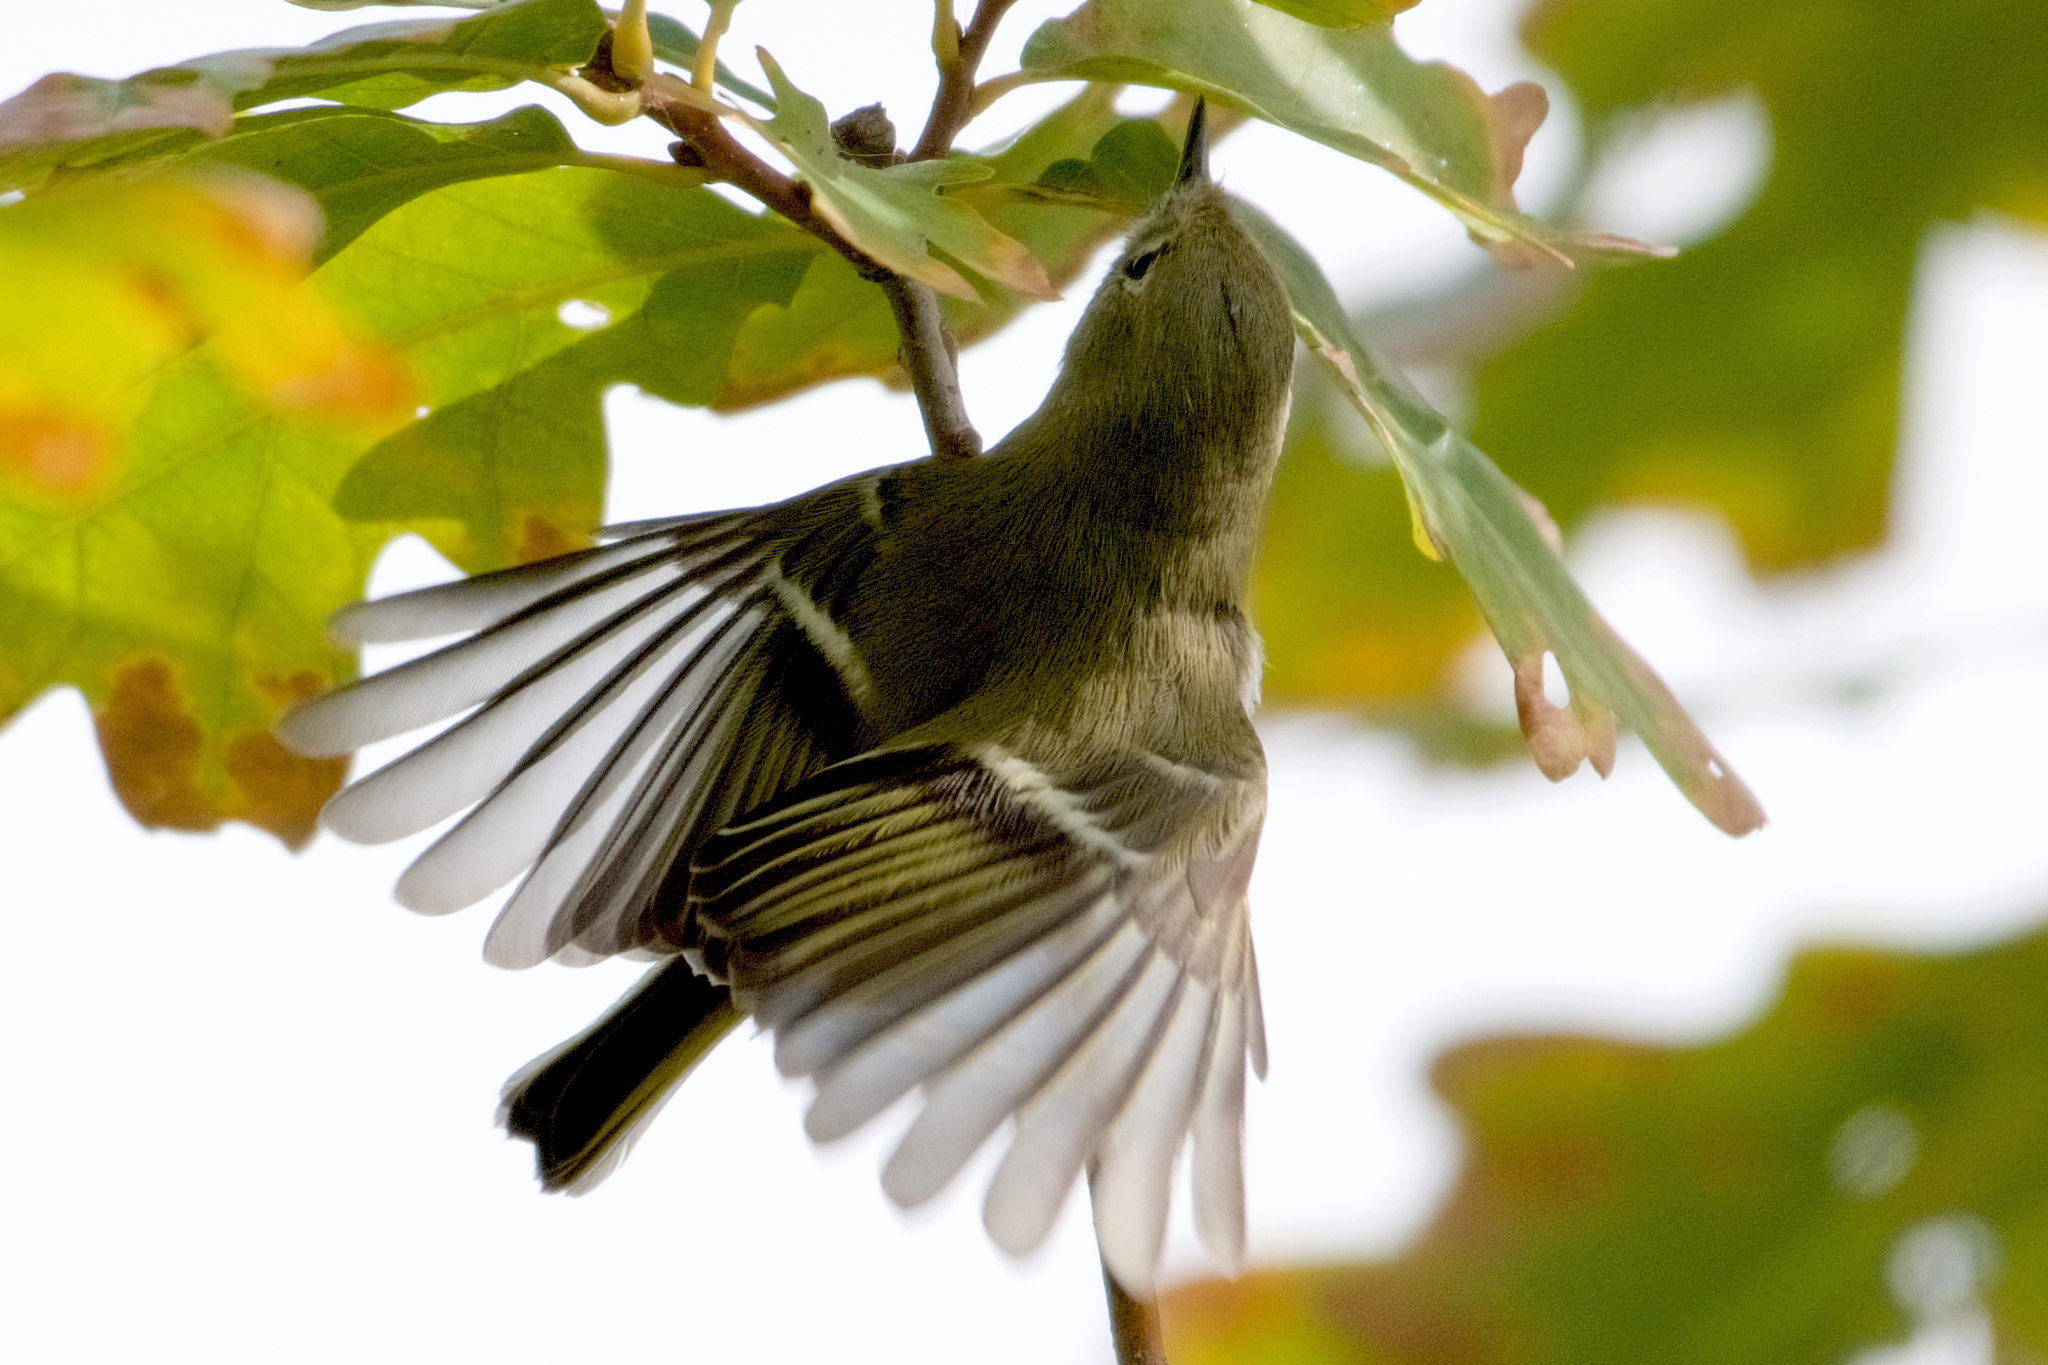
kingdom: Animalia
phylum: Chordata
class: Aves
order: Passeriformes
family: Regulidae
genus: Regulus
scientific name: Regulus calendula
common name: Ruby-crowned kinglet
